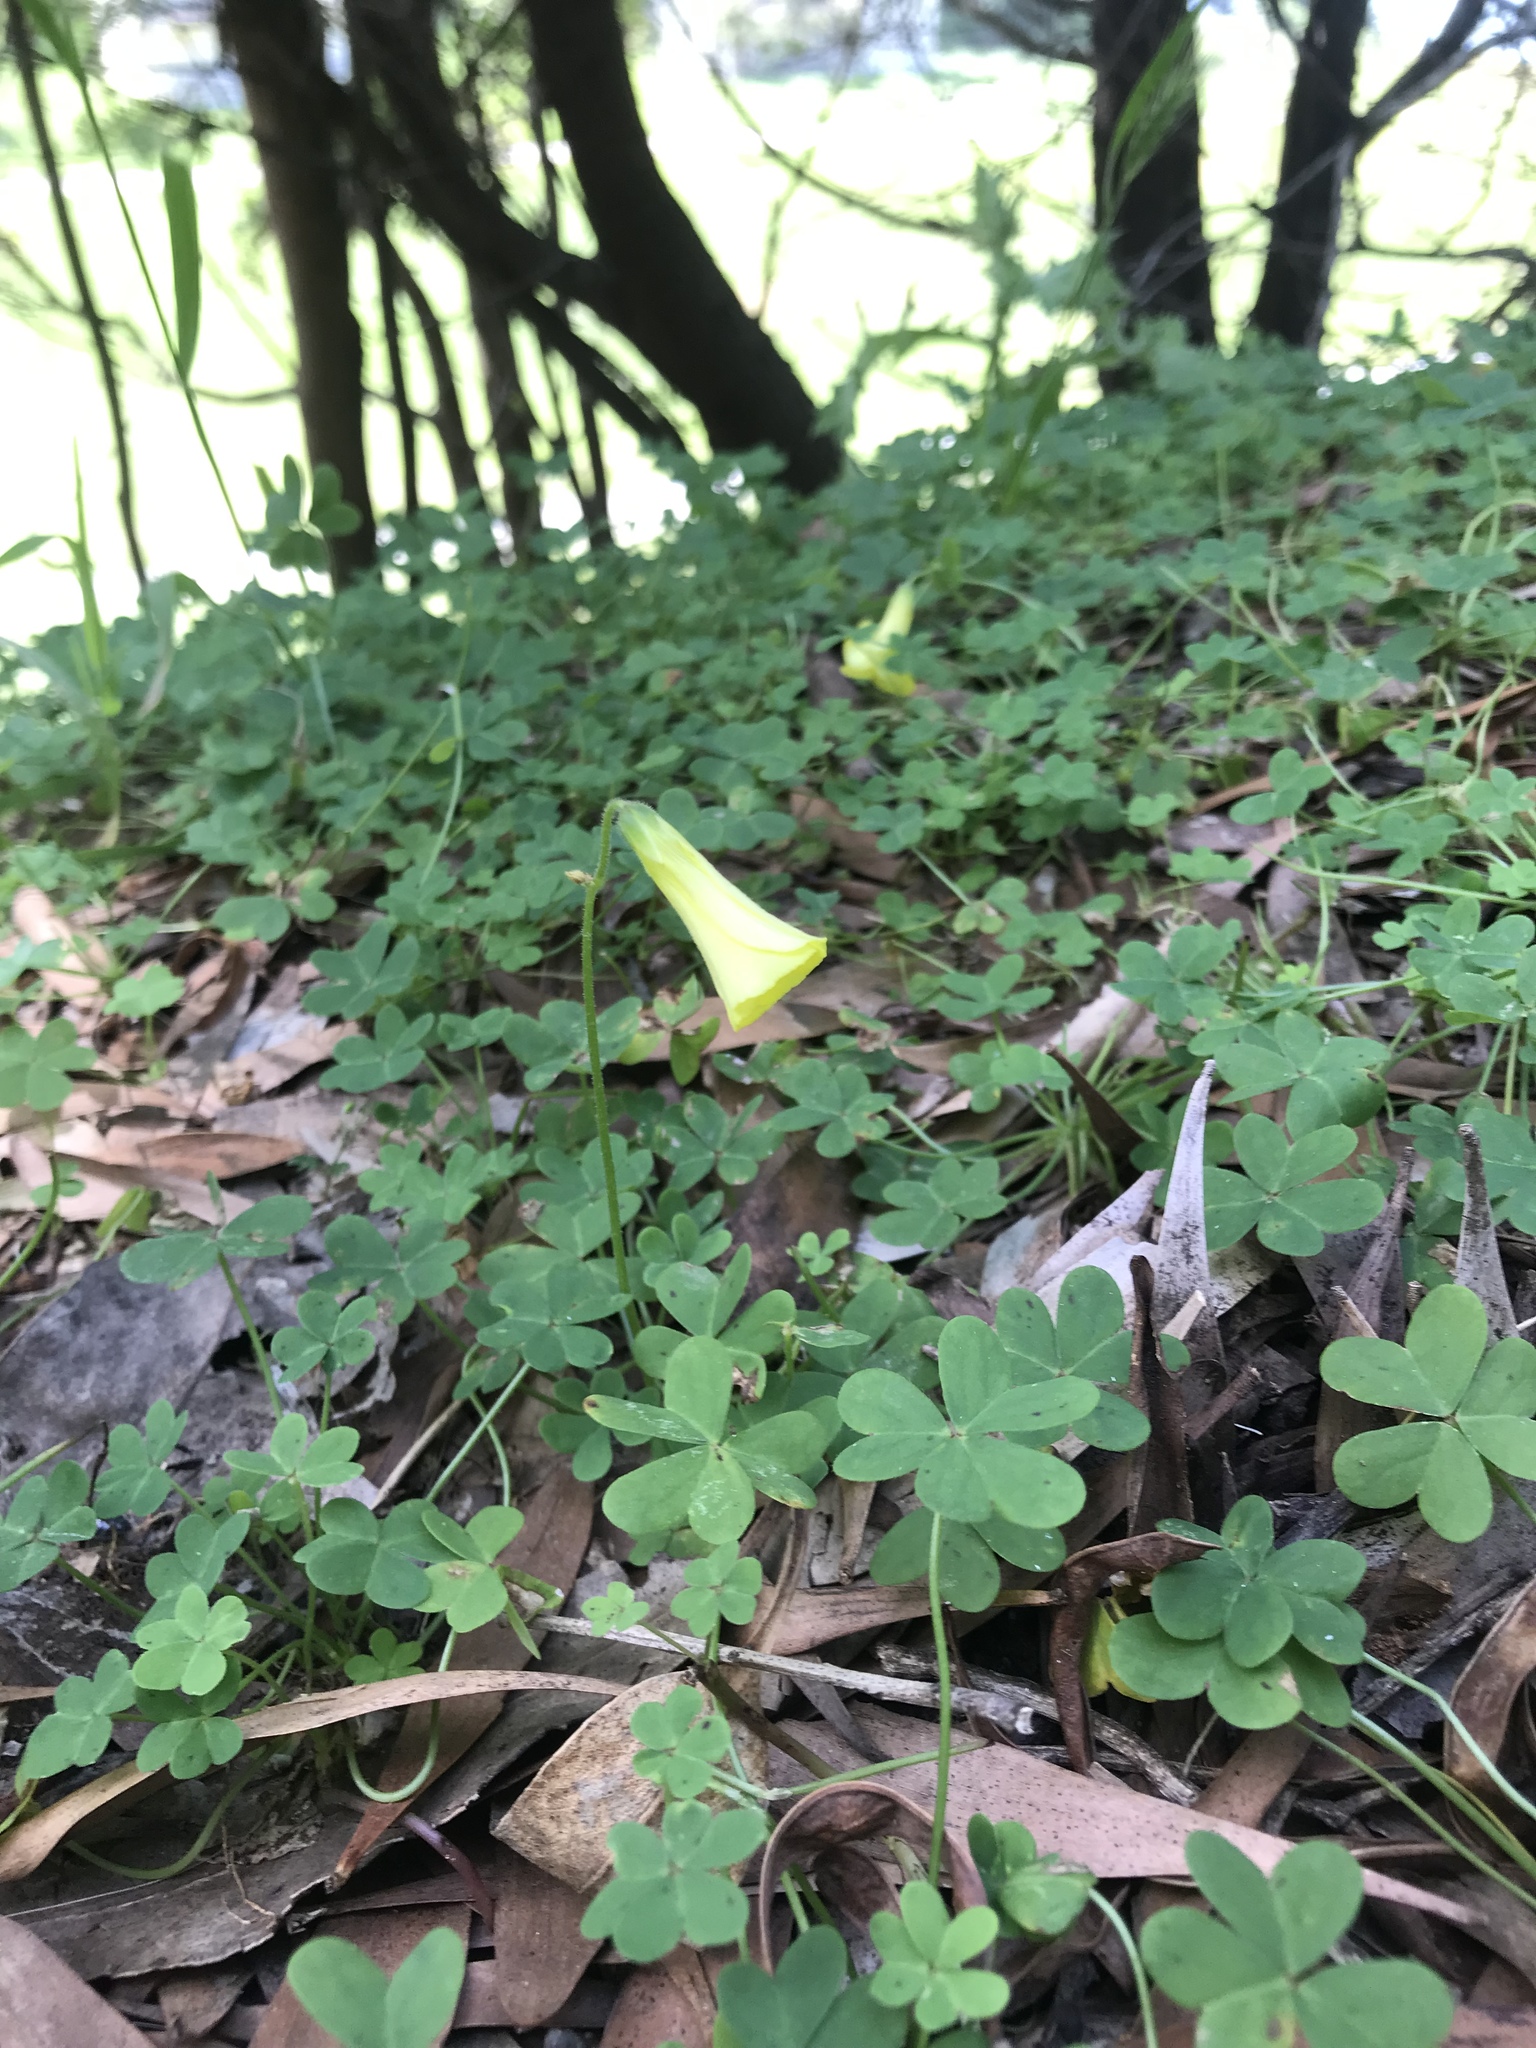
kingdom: Plantae
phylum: Tracheophyta
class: Magnoliopsida
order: Oxalidales
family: Oxalidaceae
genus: Oxalis
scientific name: Oxalis pes-caprae
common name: Bermuda-buttercup
